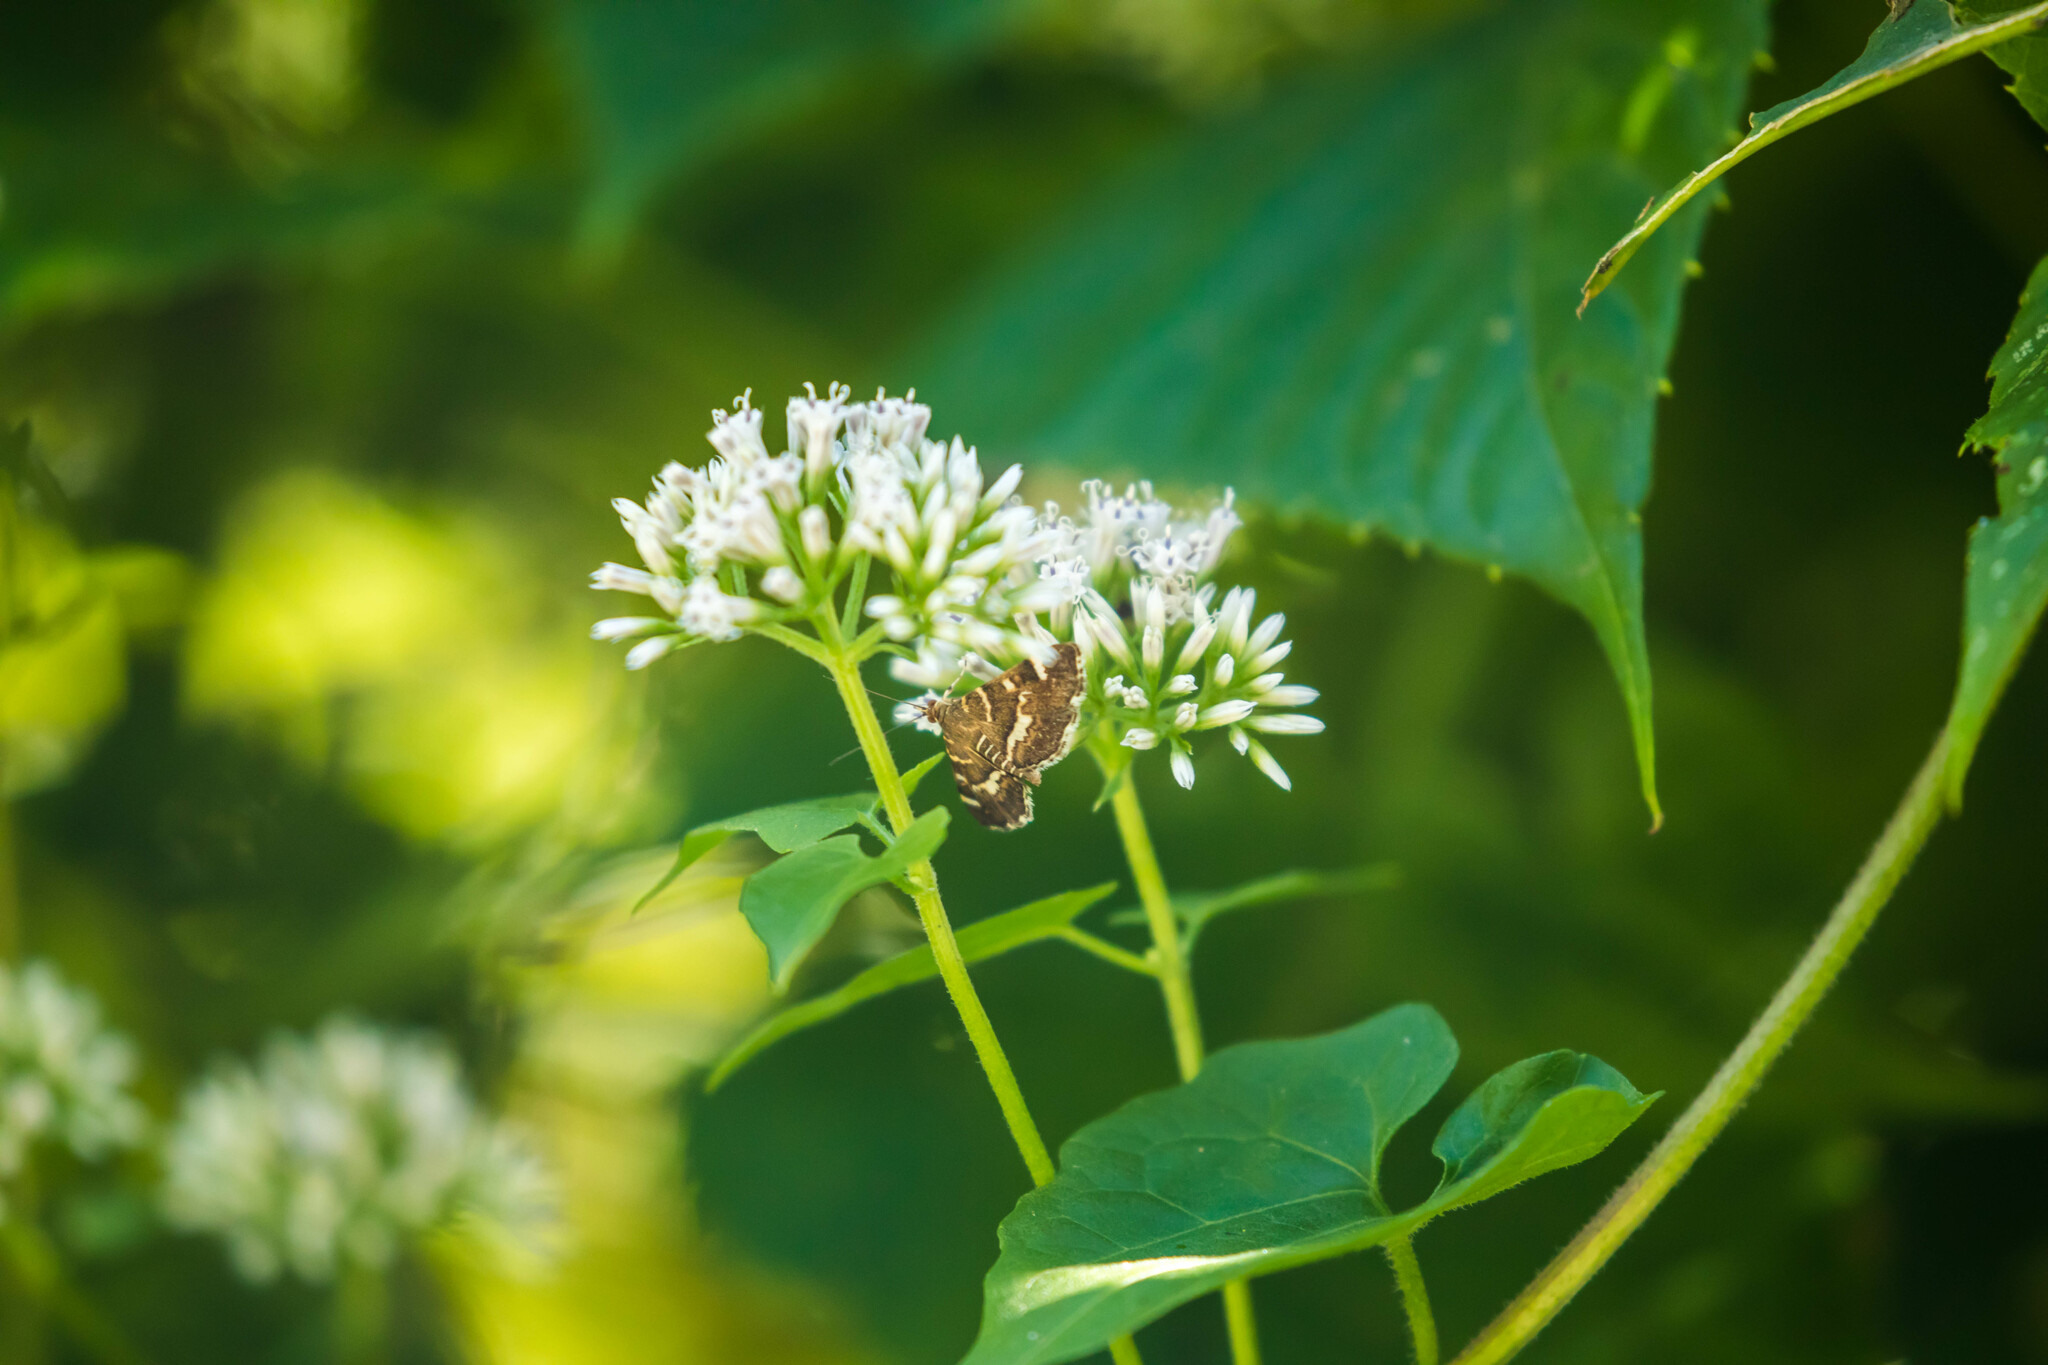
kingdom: Animalia
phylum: Arthropoda
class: Insecta
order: Lepidoptera
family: Crambidae
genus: Hymenia
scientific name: Hymenia perspectalis
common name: Spotted beet webworm
